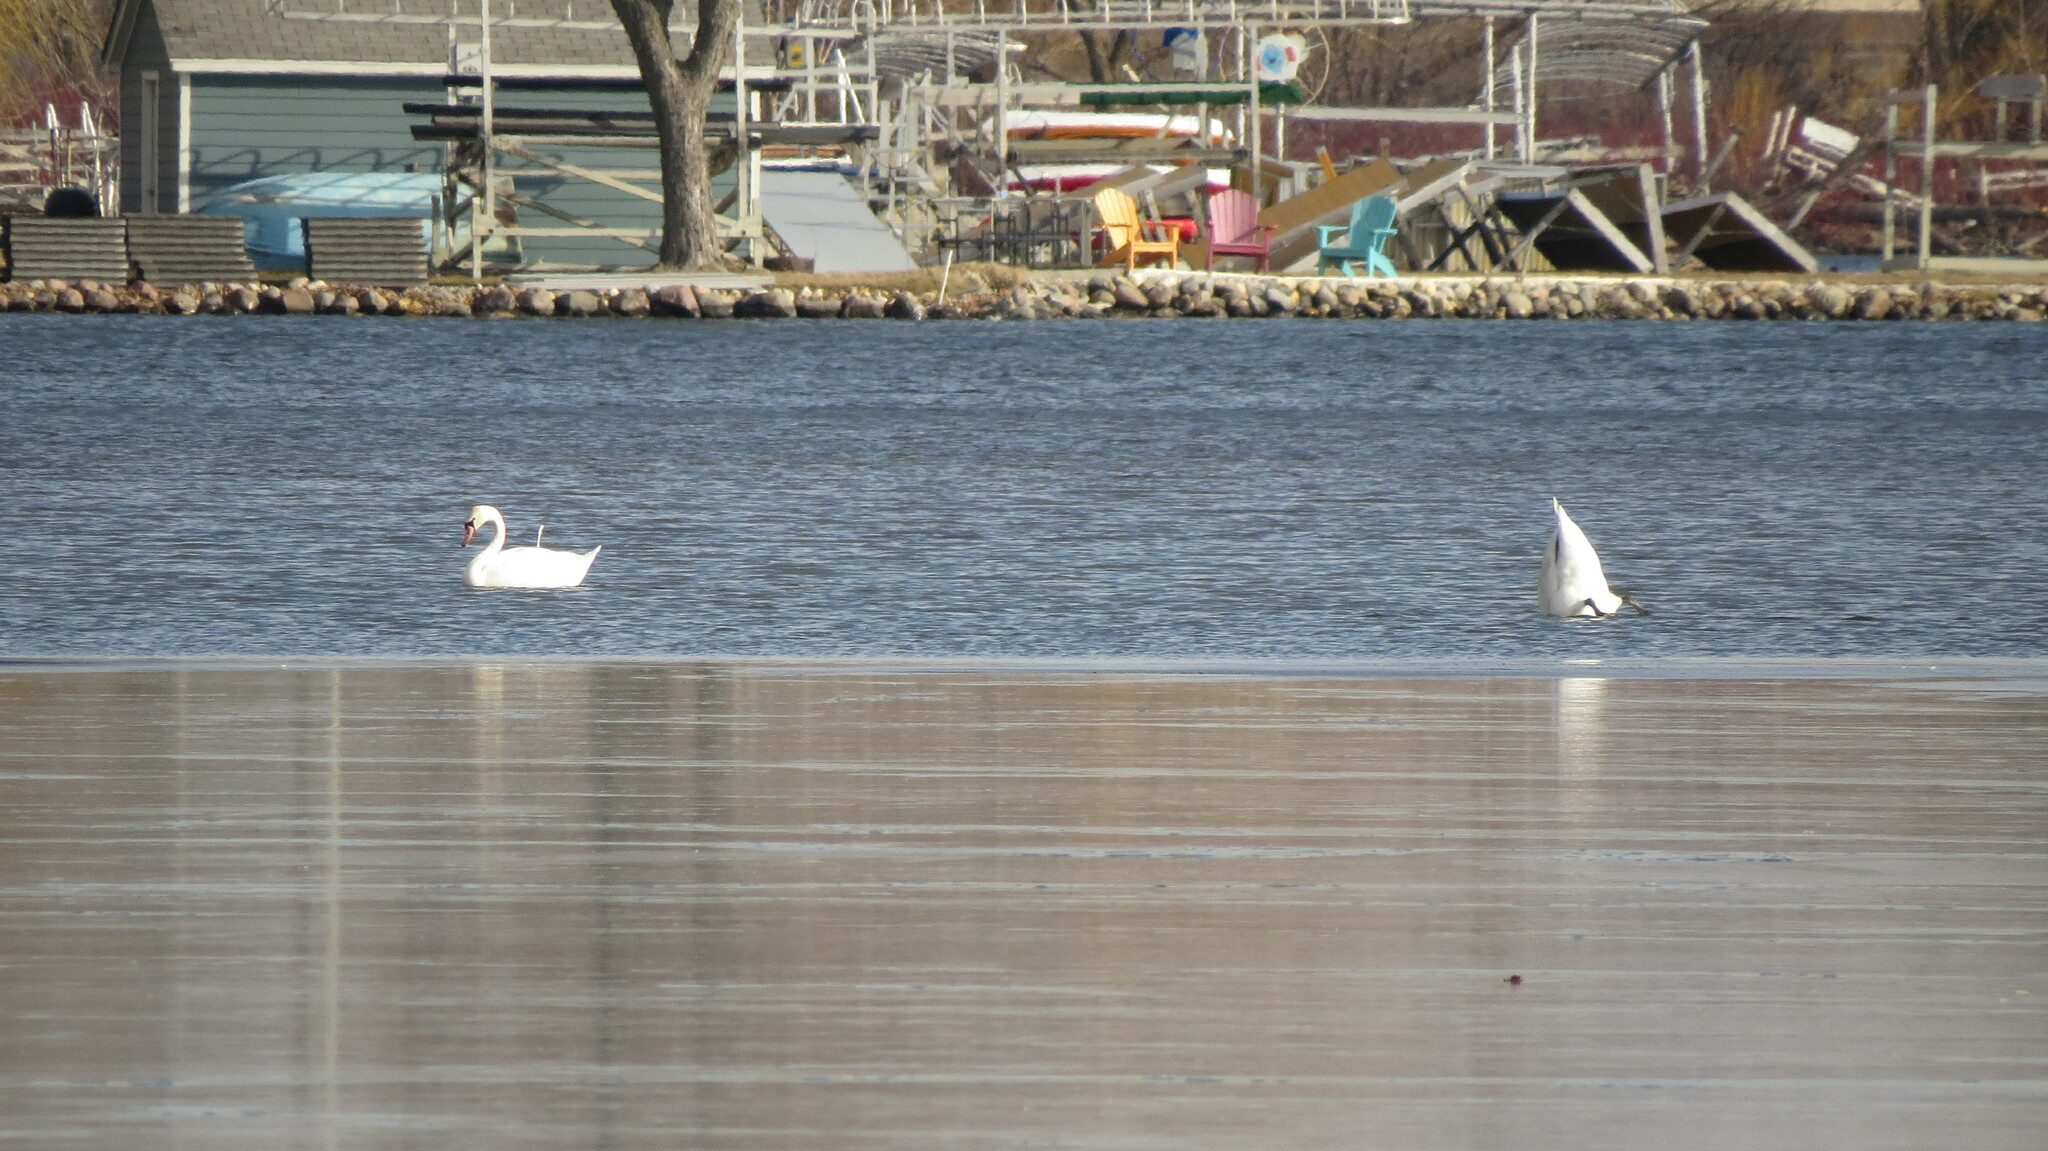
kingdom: Animalia
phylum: Chordata
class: Aves
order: Anseriformes
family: Anatidae
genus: Cygnus
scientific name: Cygnus olor
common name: Mute swan
